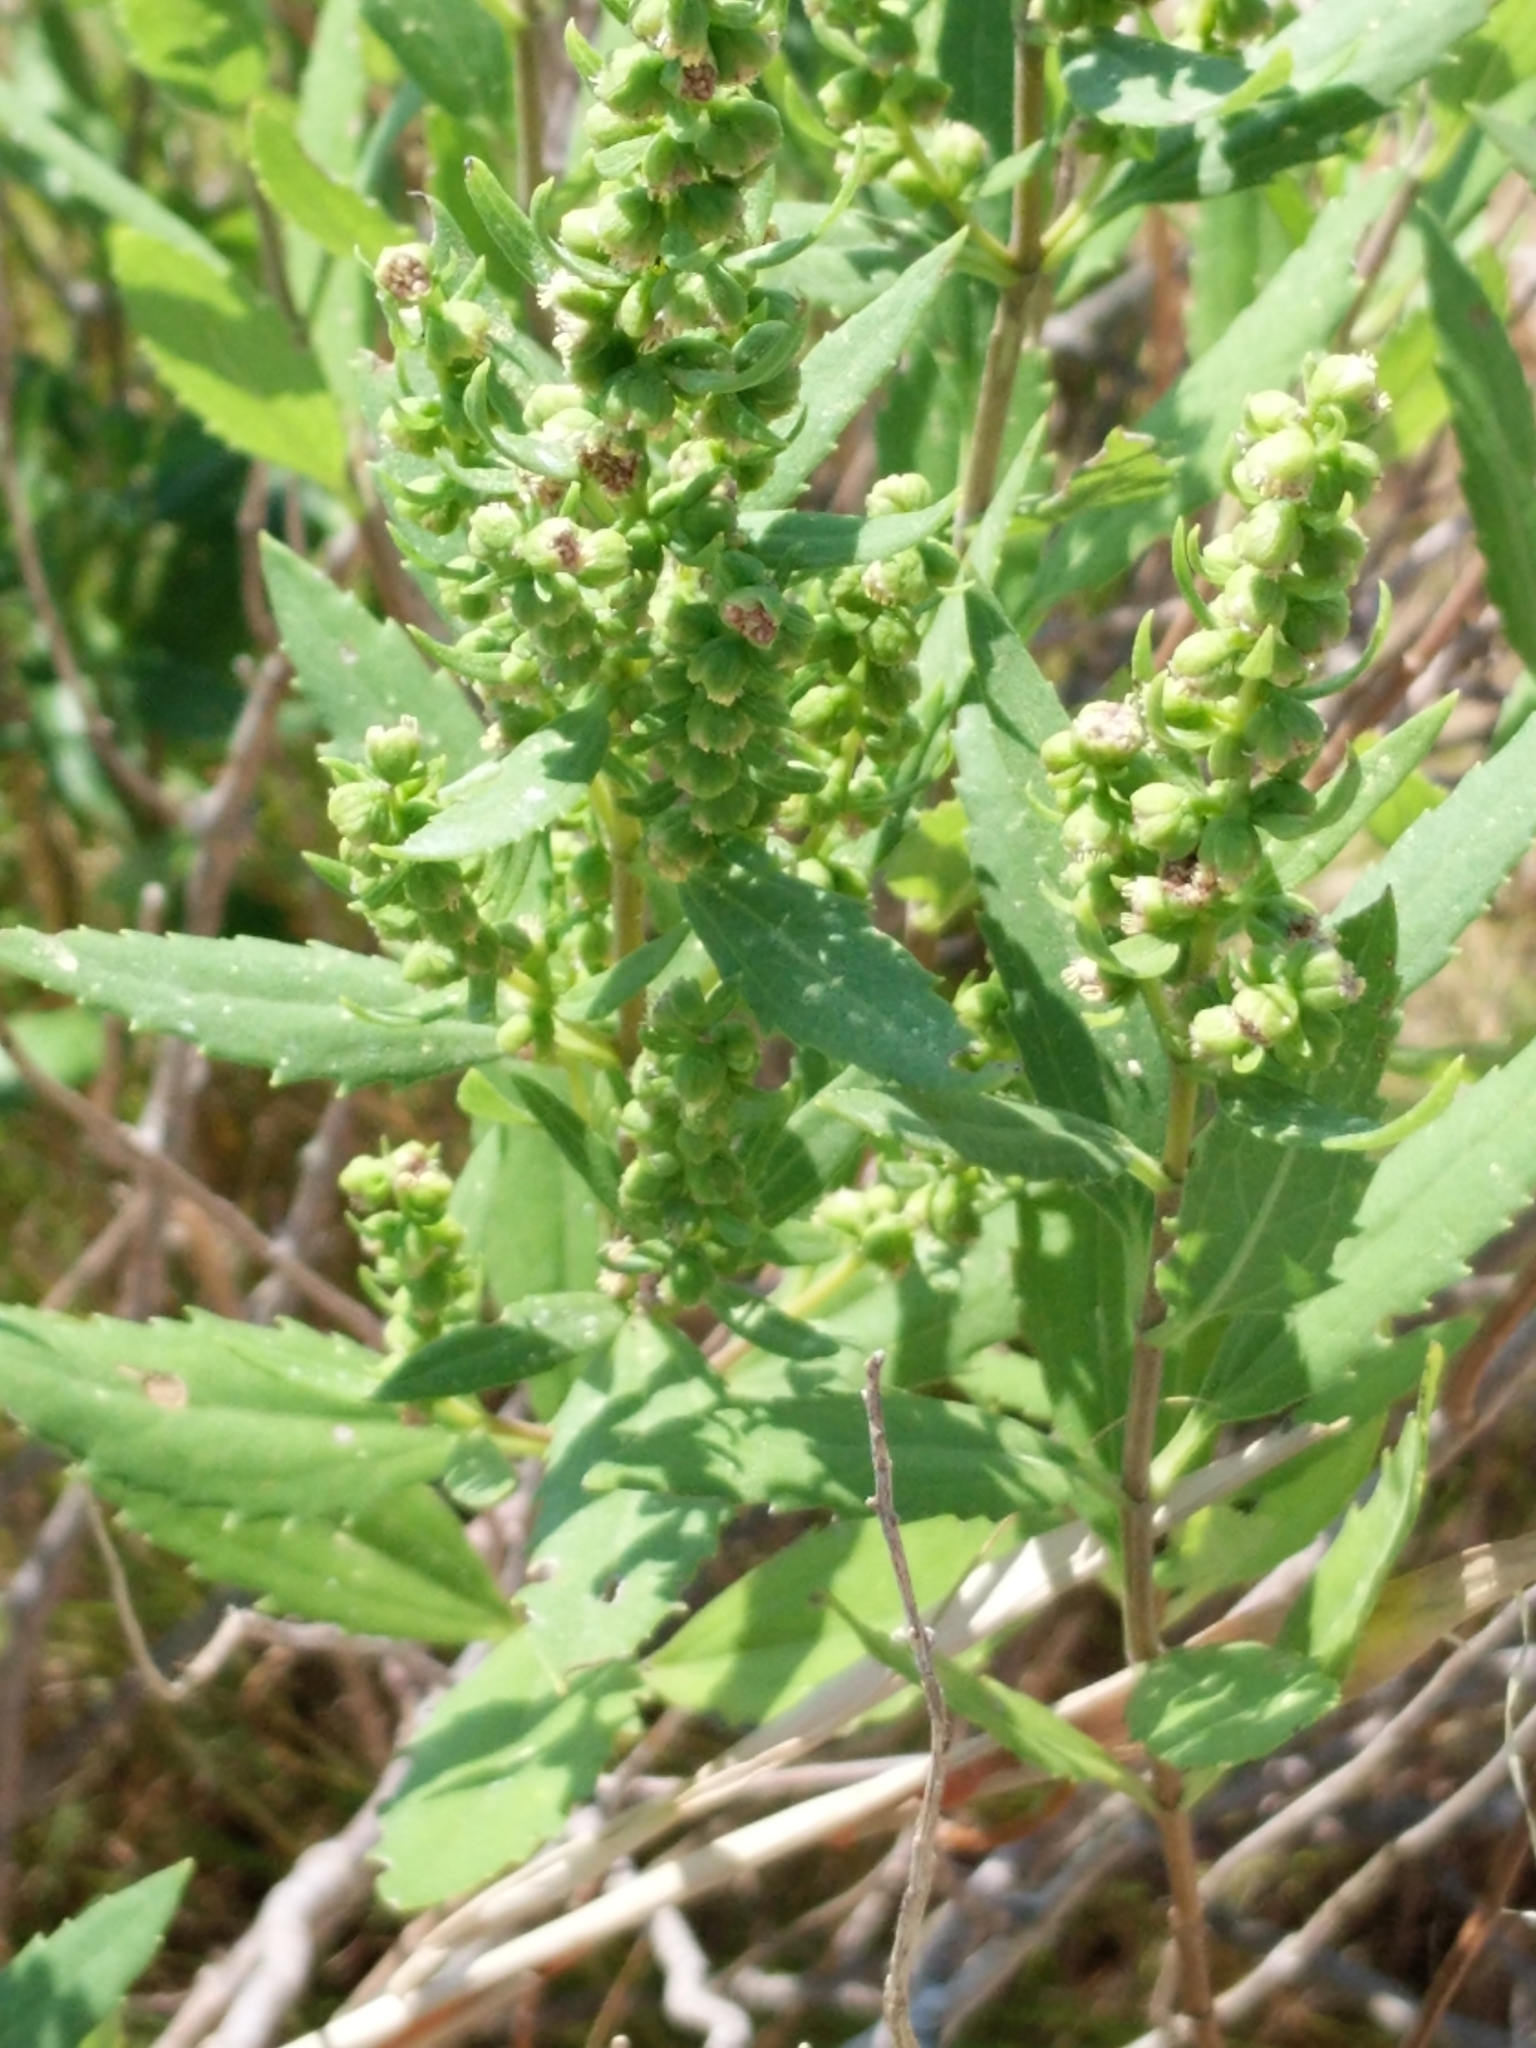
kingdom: Plantae
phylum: Tracheophyta
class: Magnoliopsida
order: Asterales
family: Asteraceae
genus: Iva
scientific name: Iva frutescens
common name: Big-leaved marsh-elder
